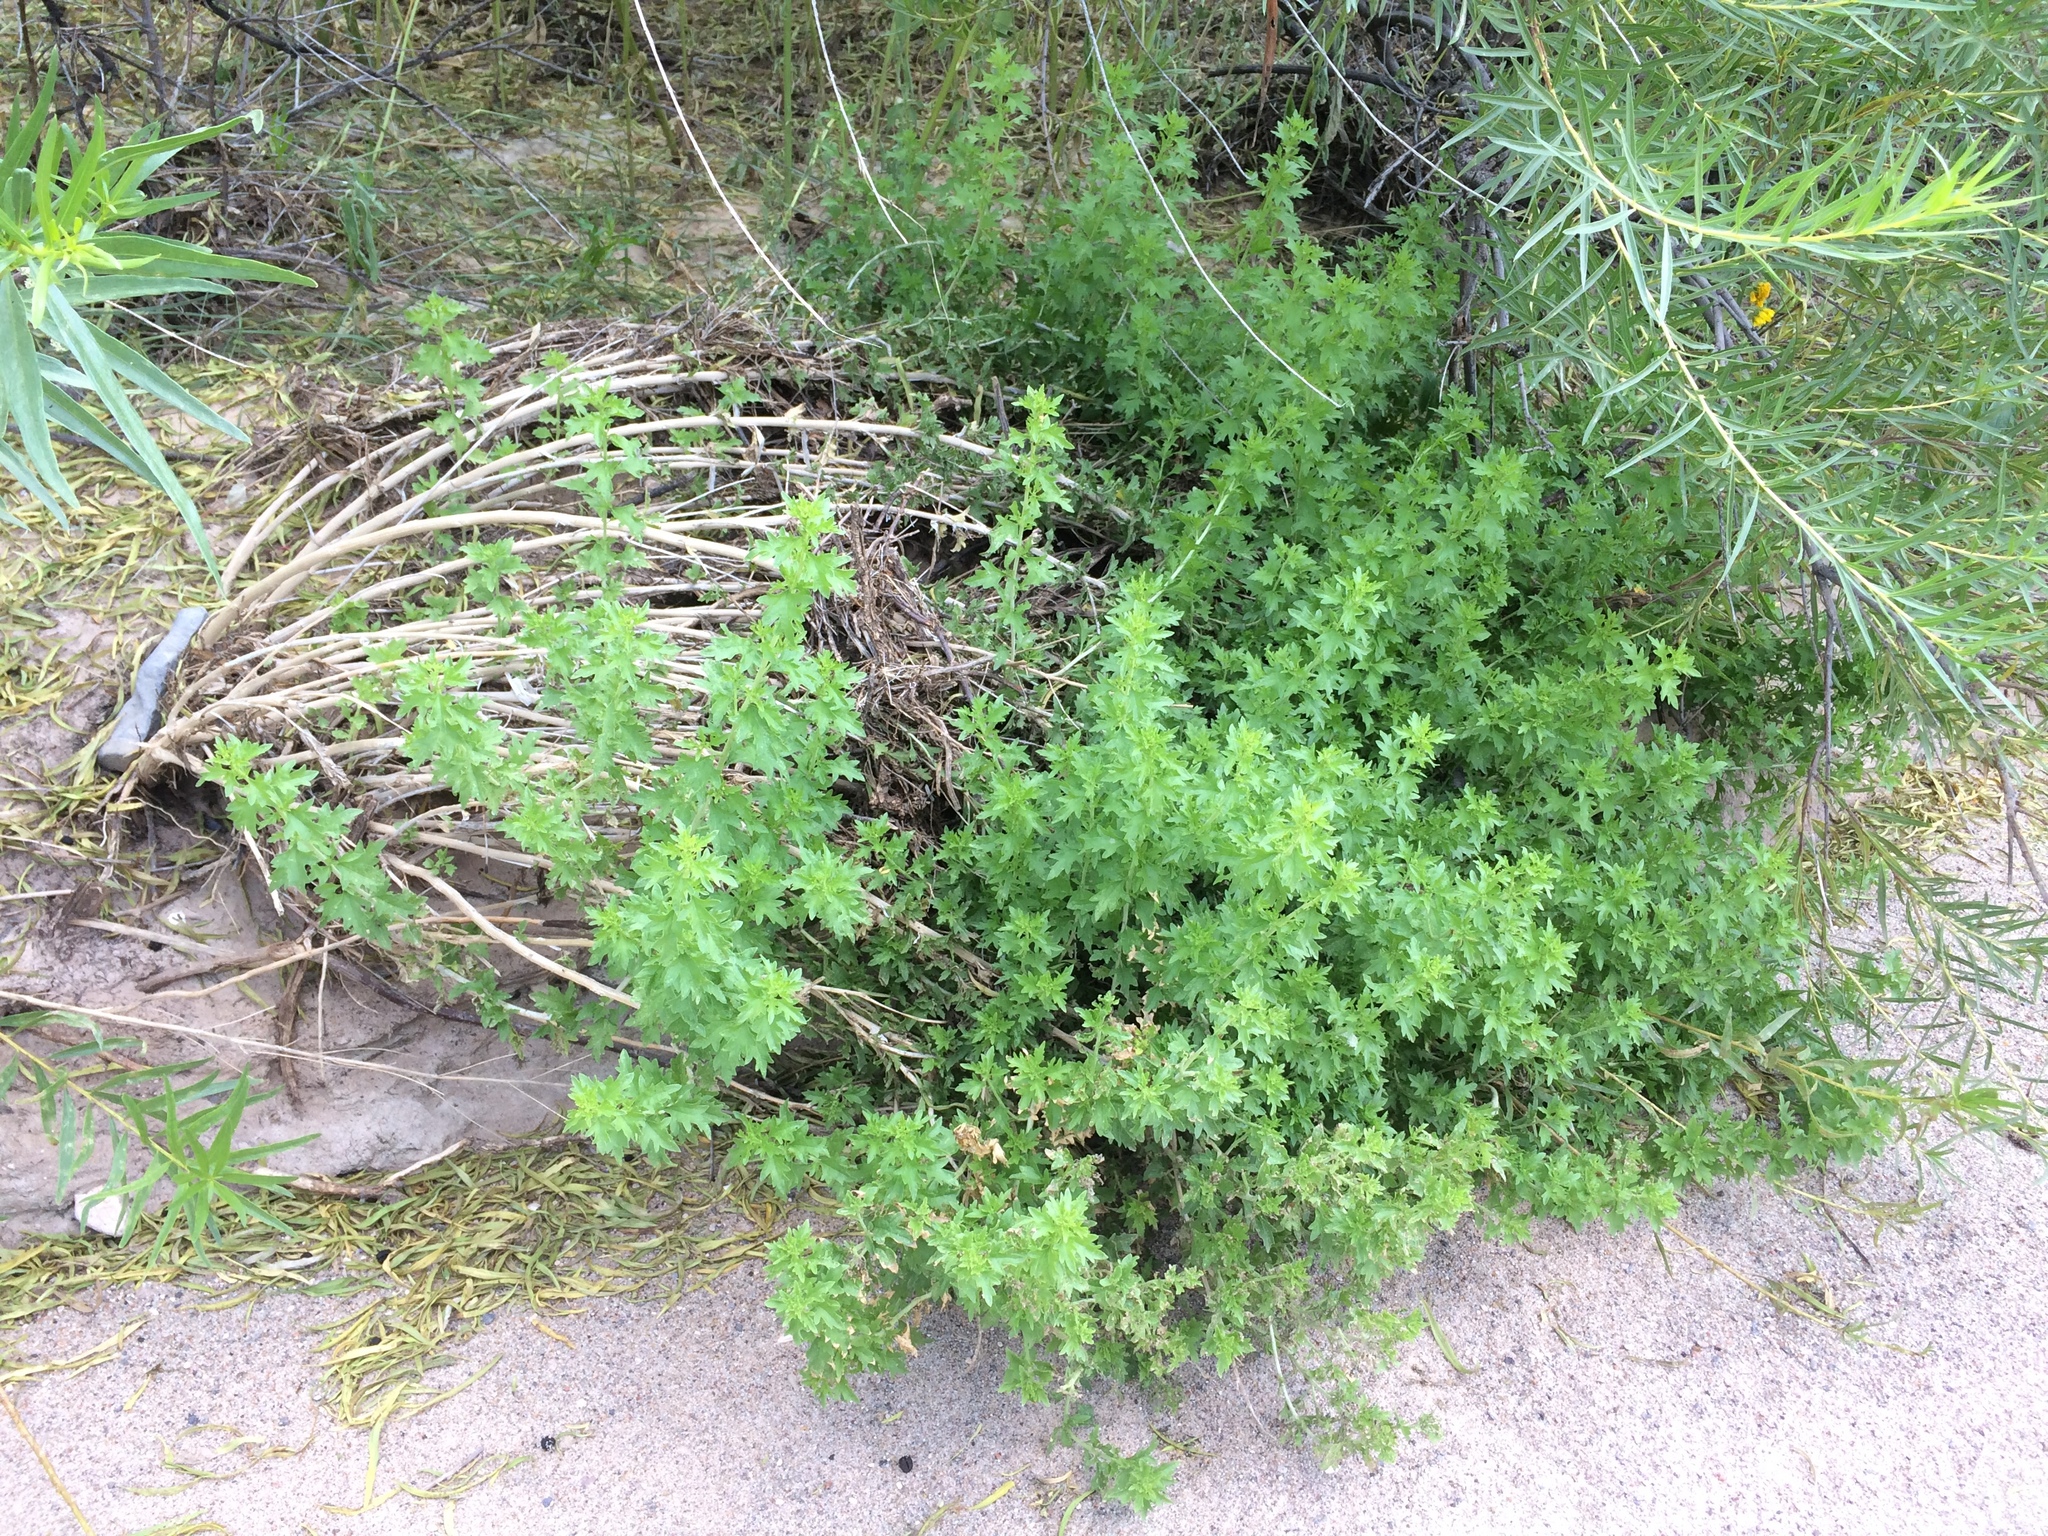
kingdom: Plantae
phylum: Tracheophyta
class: Magnoliopsida
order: Asterales
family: Asteraceae
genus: Brickellia
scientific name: Brickellia laciniata
